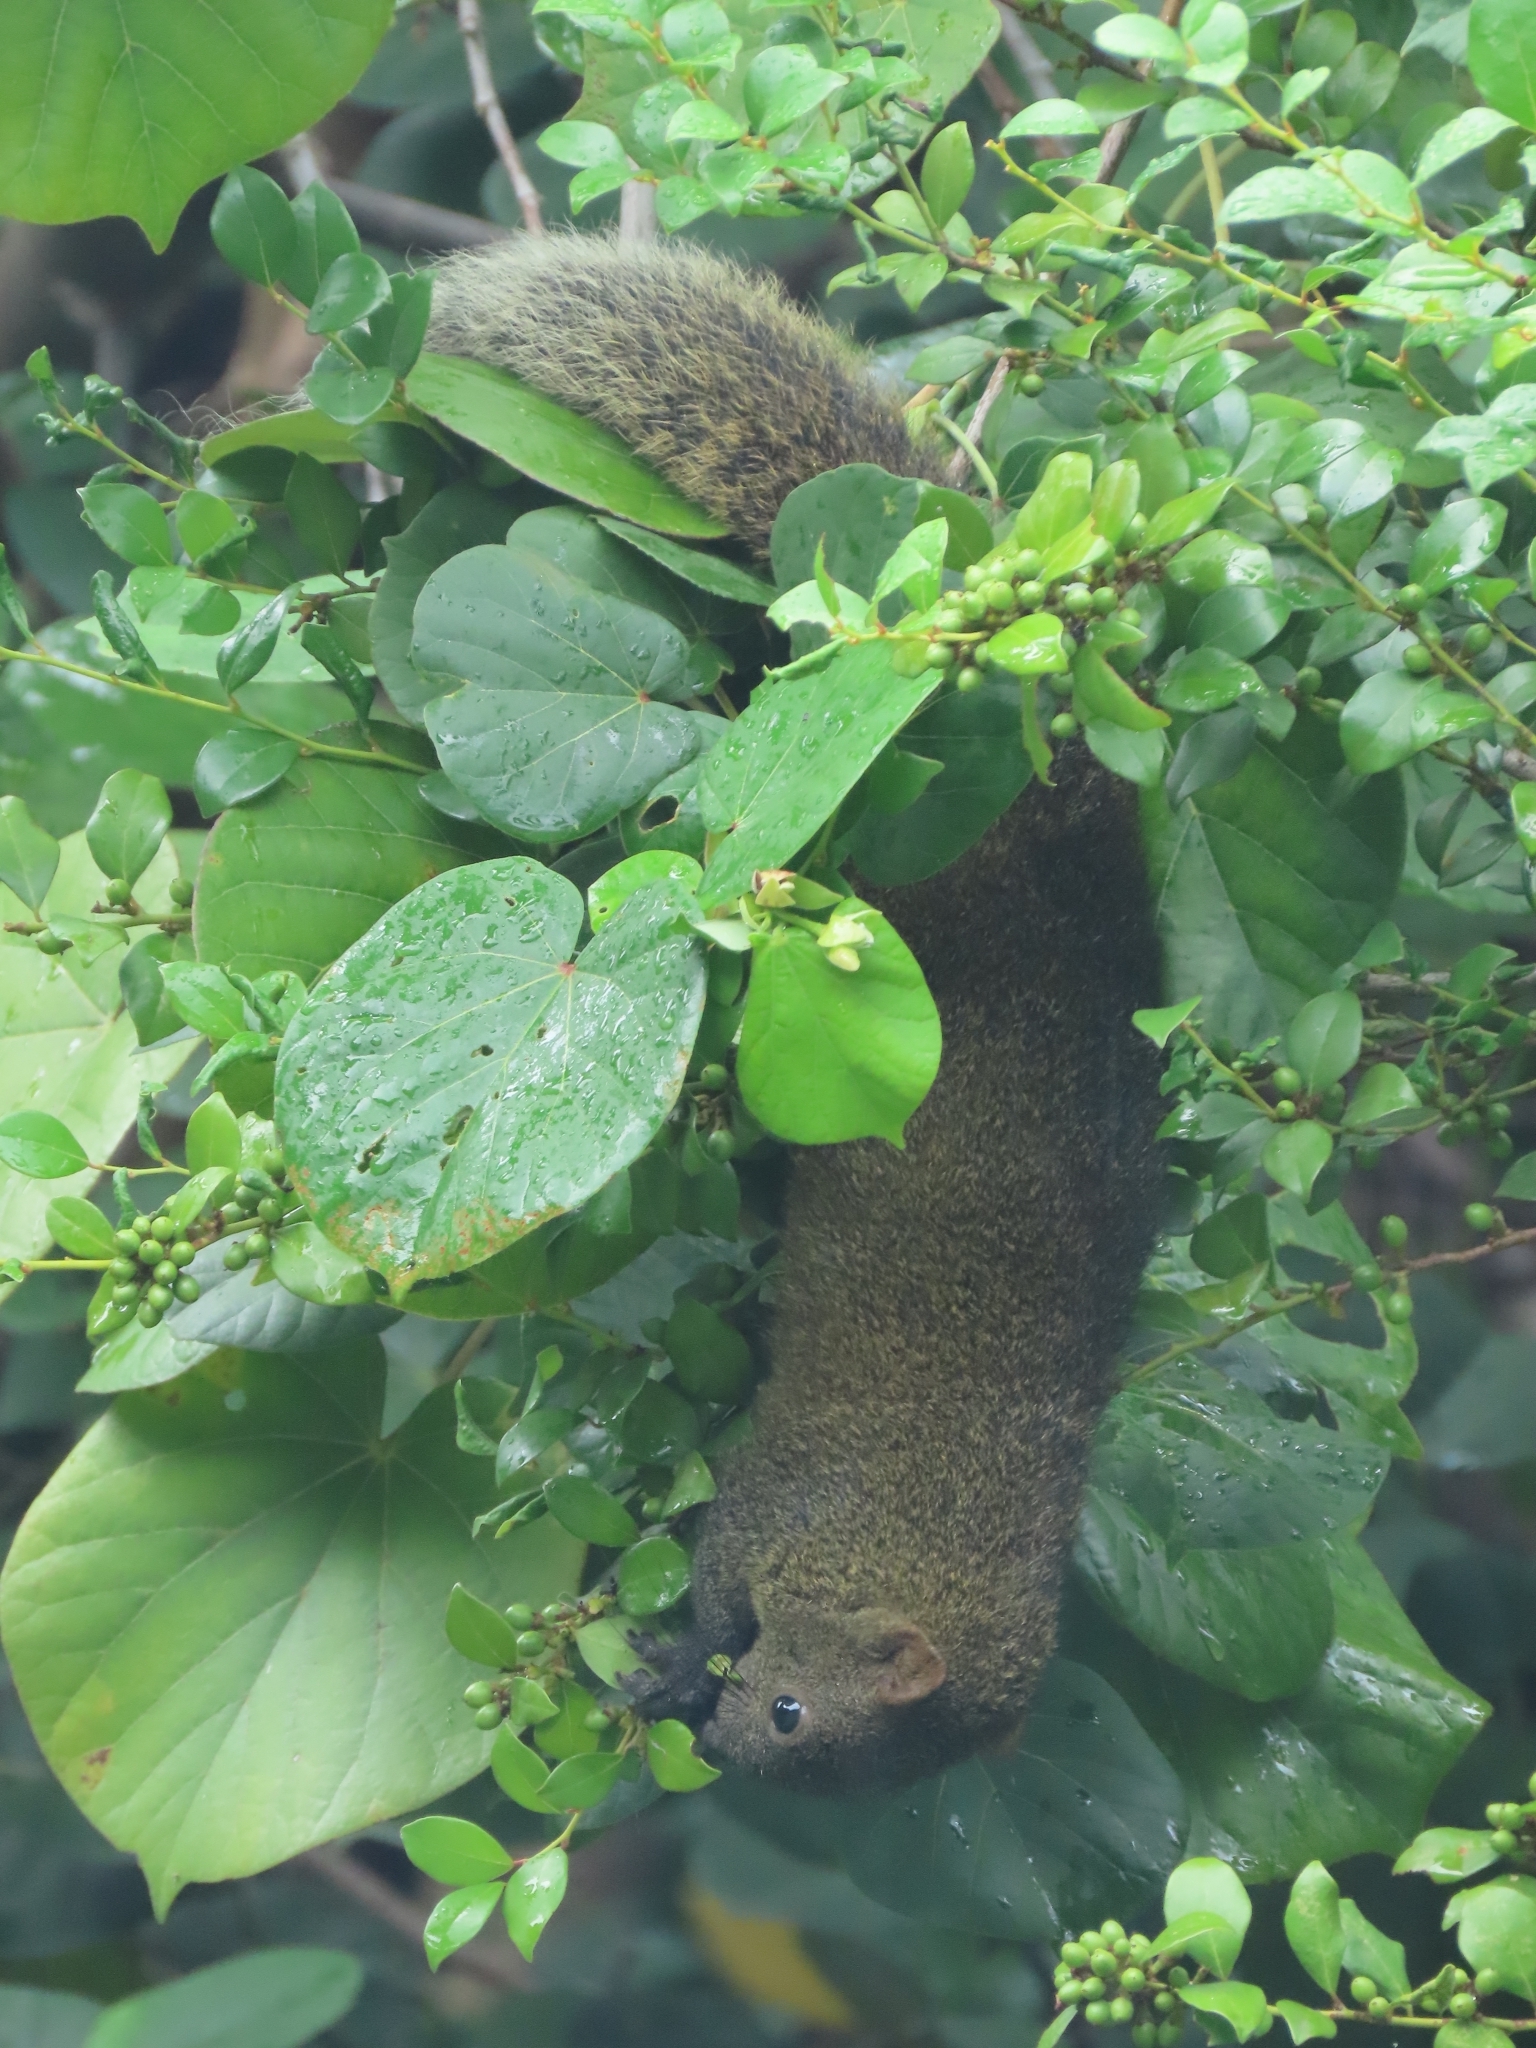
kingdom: Animalia
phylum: Chordata
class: Mammalia
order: Rodentia
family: Sciuridae
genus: Callosciurus
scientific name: Callosciurus erythraeus
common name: Pallas's squirrel
